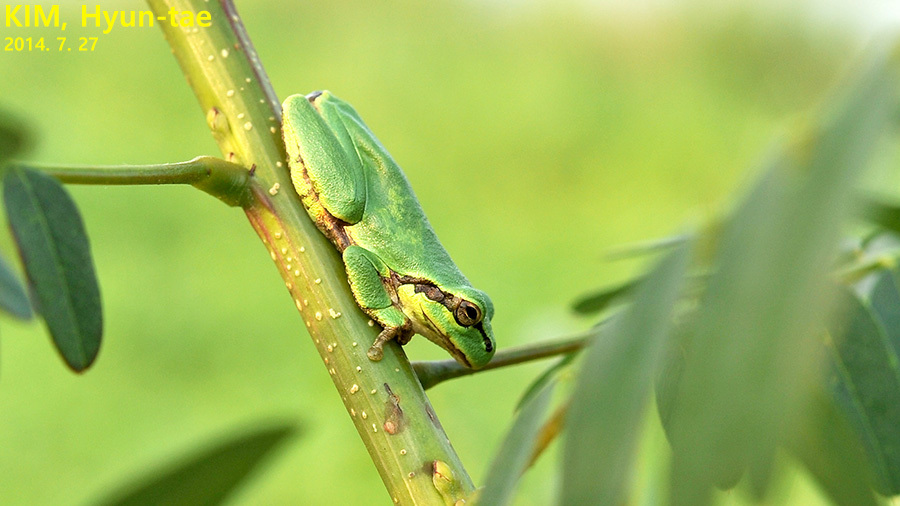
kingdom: Animalia
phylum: Chordata
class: Amphibia
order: Anura
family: Hylidae
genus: Dryophytes
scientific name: Dryophytes japonicus
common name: Japanese treefrog
